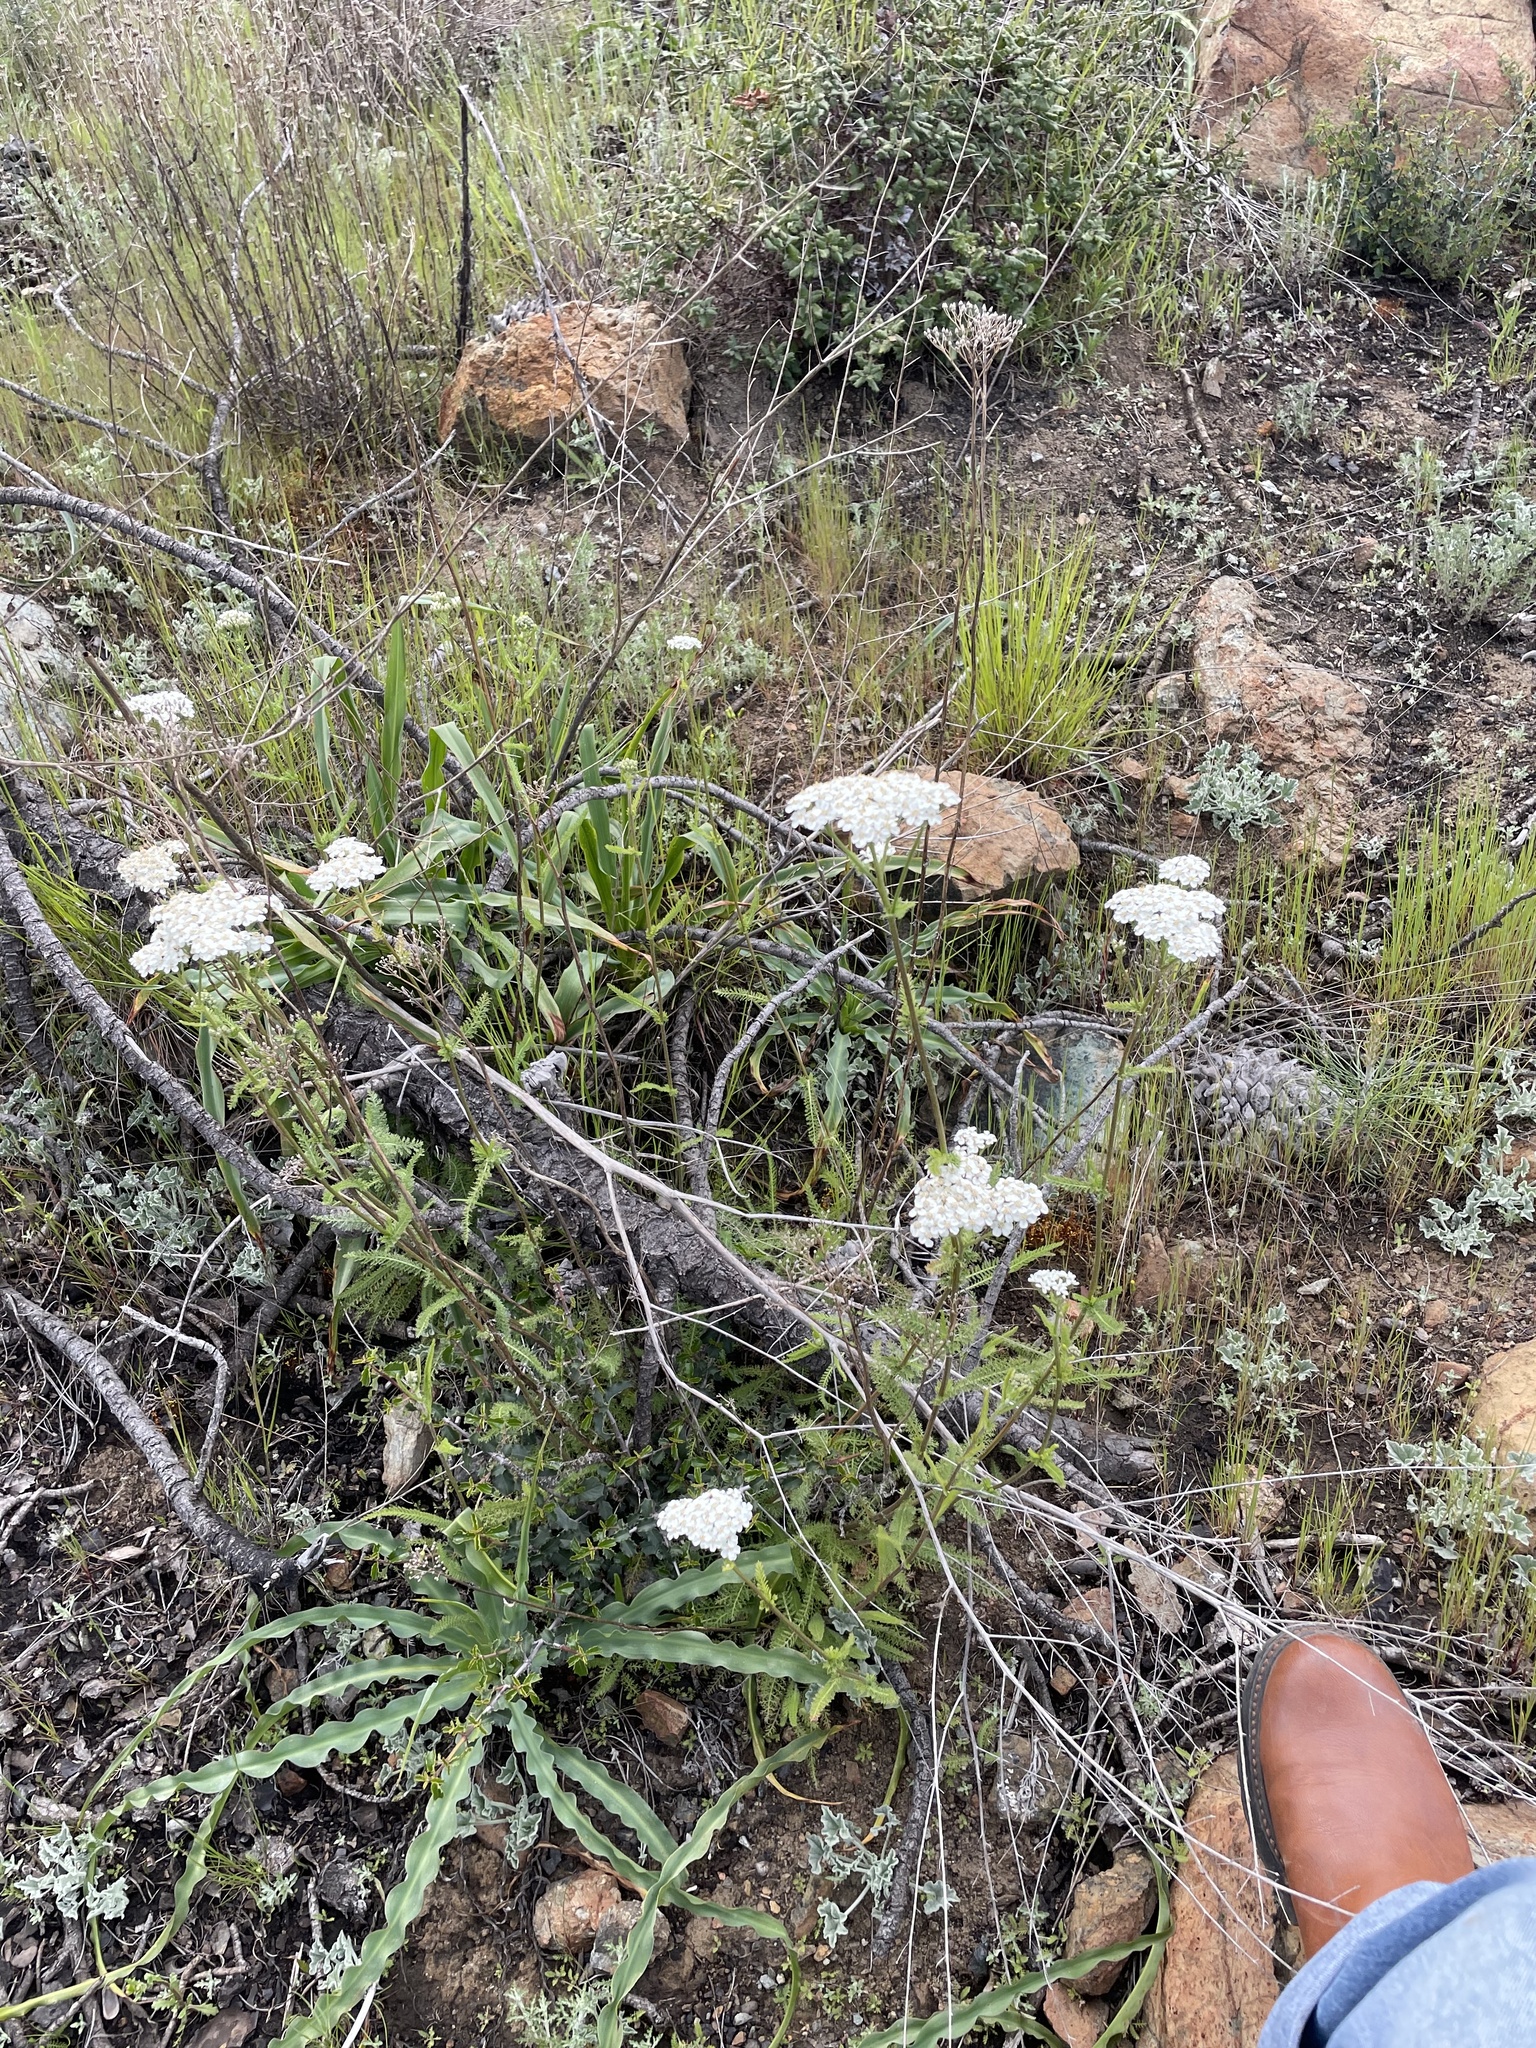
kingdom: Plantae
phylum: Tracheophyta
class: Magnoliopsida
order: Asterales
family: Asteraceae
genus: Achillea
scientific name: Achillea millefolium
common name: Yarrow
